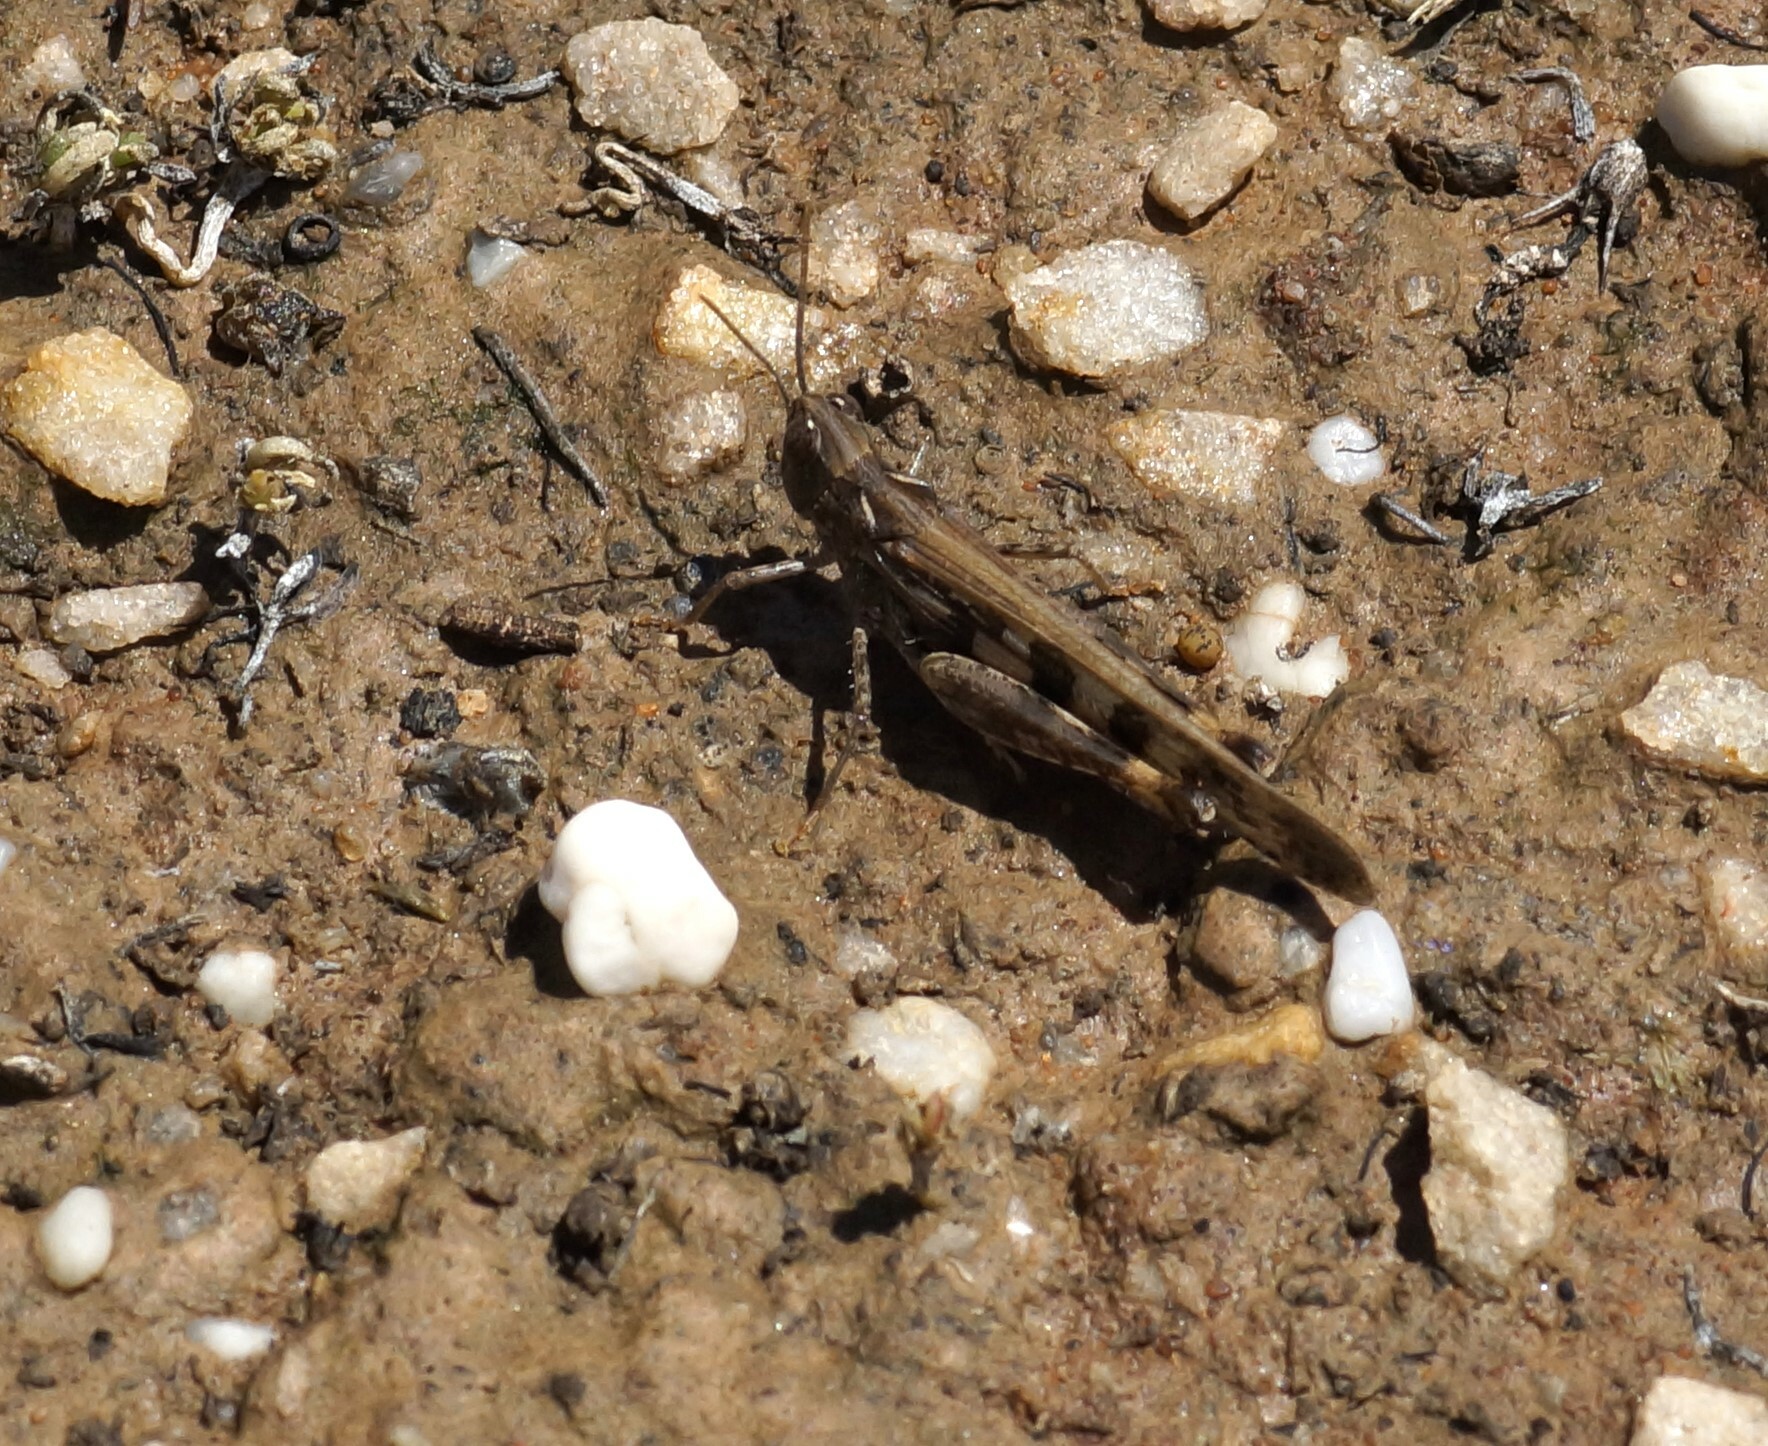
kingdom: Animalia
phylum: Arthropoda
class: Insecta
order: Orthoptera
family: Acrididae
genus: Chortoicetes
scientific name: Chortoicetes terminifera
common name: Australian plague locust
